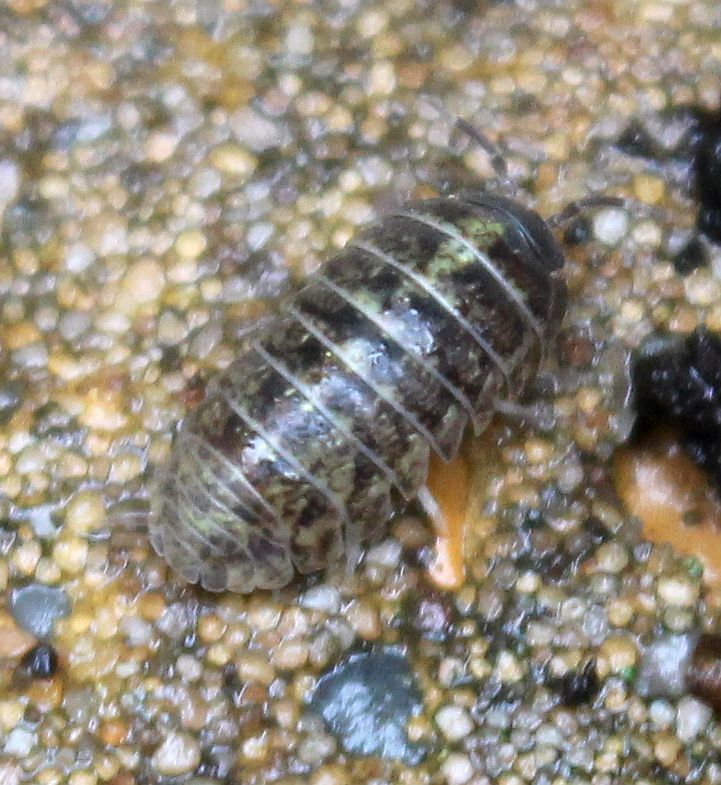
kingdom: Animalia
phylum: Arthropoda
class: Malacostraca
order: Isopoda
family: Armadillidiidae
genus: Armadillidium
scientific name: Armadillidium vulgare
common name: Common pill woodlouse
